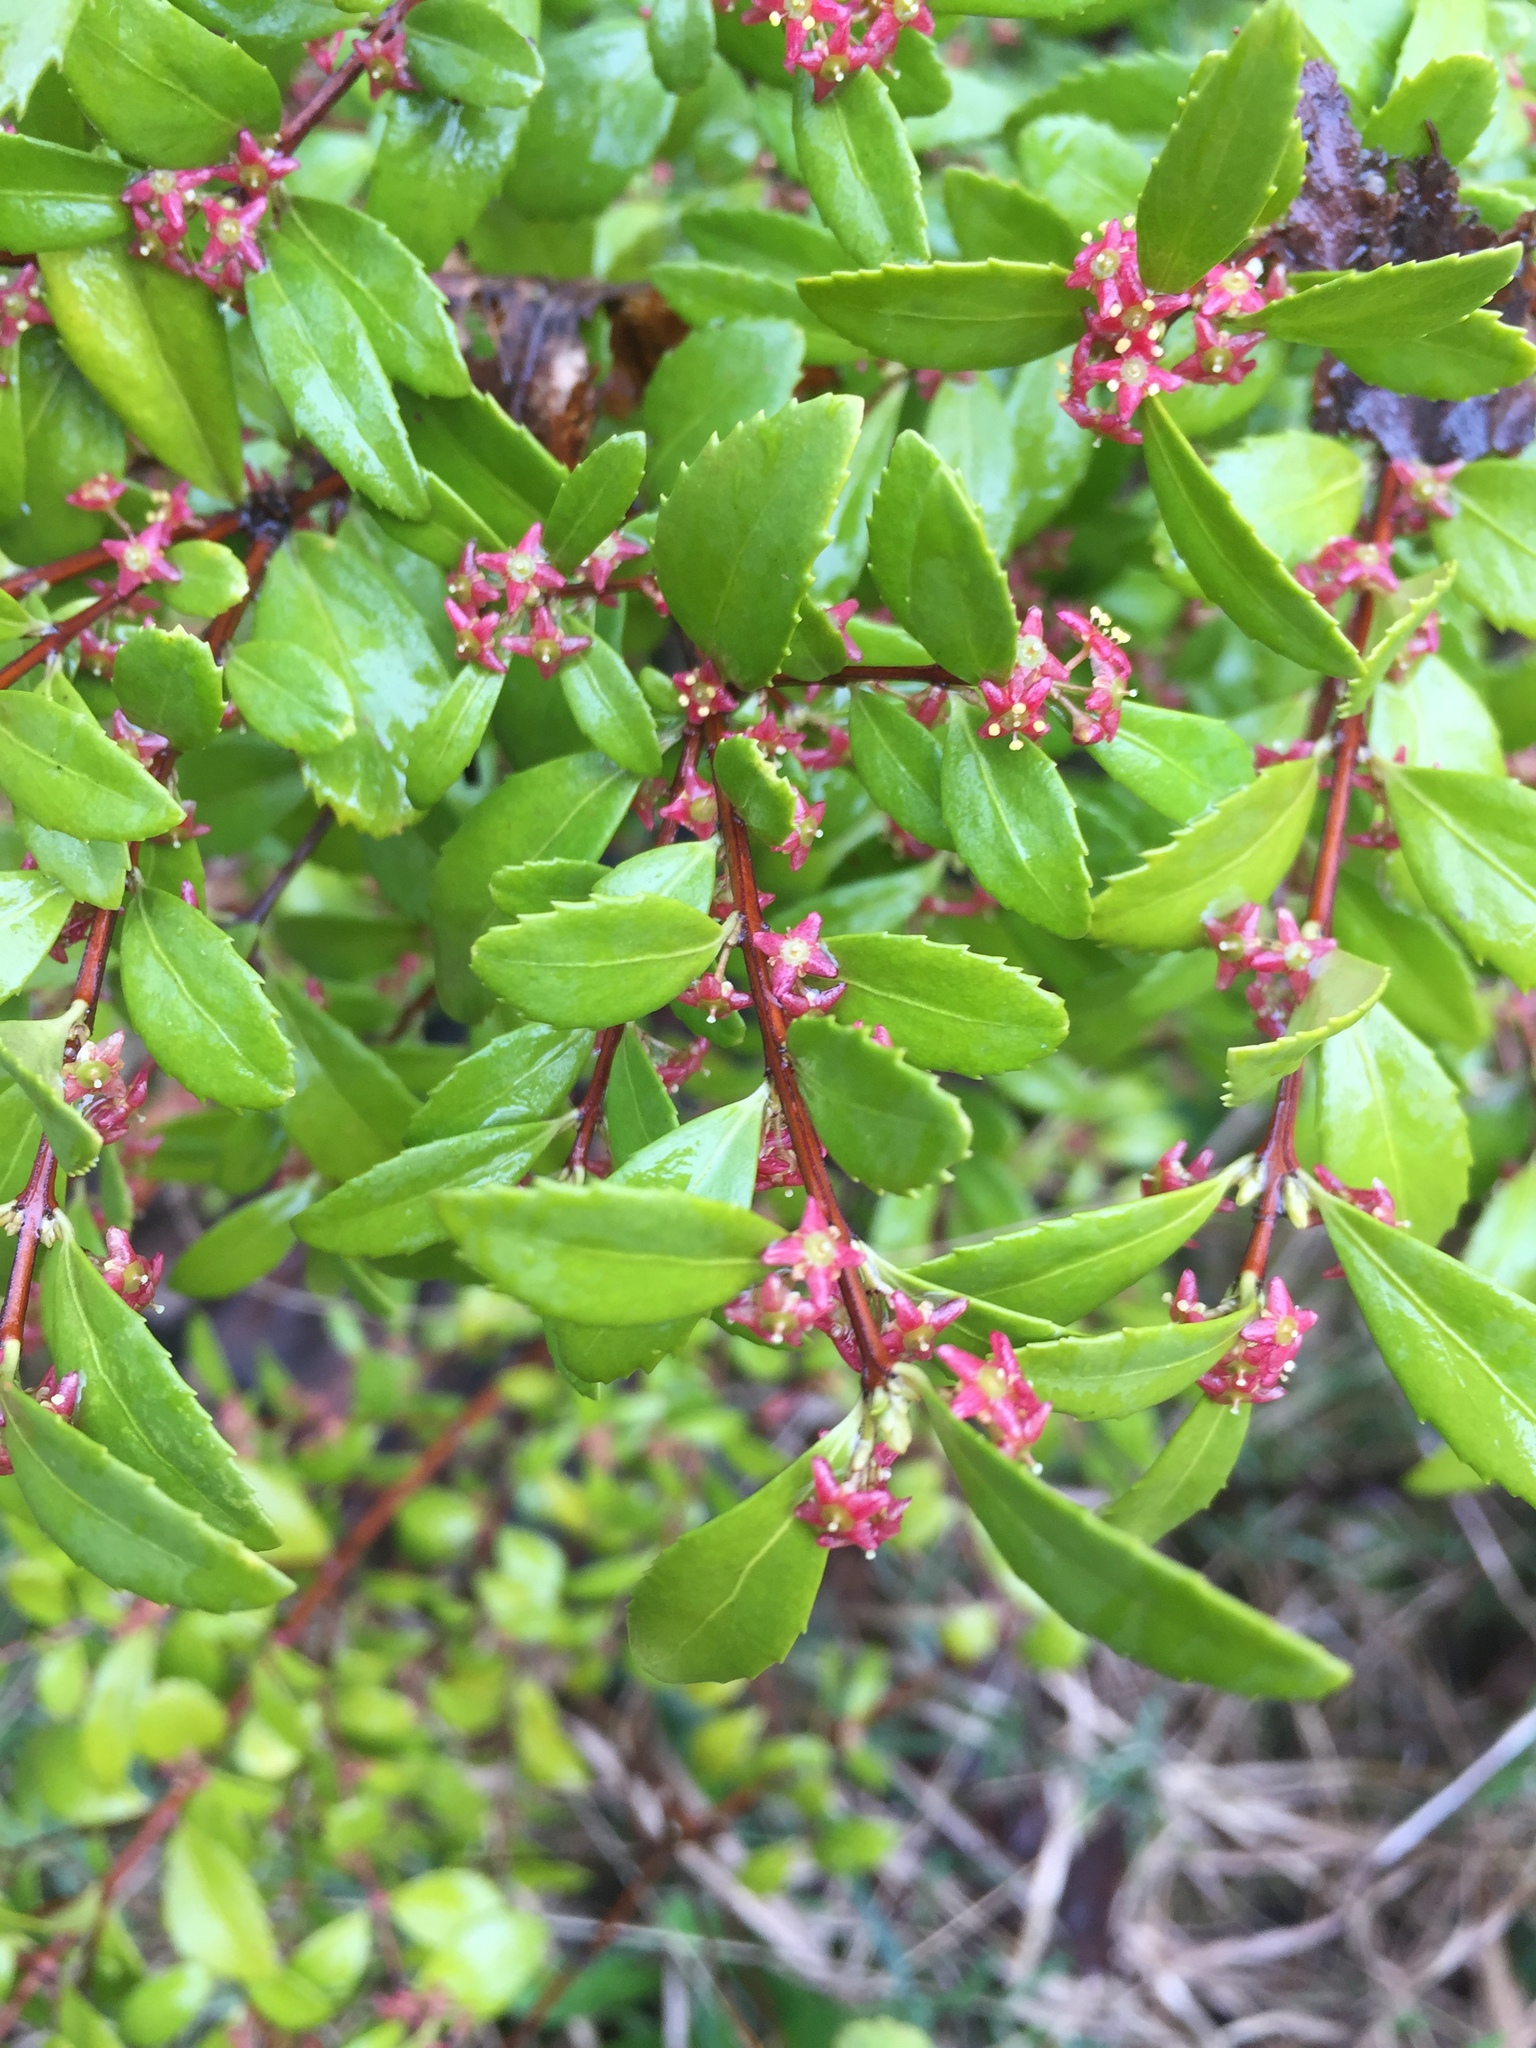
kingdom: Plantae
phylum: Tracheophyta
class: Magnoliopsida
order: Celastrales
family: Celastraceae
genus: Paxistima
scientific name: Paxistima myrsinites
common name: Mountain-lover
